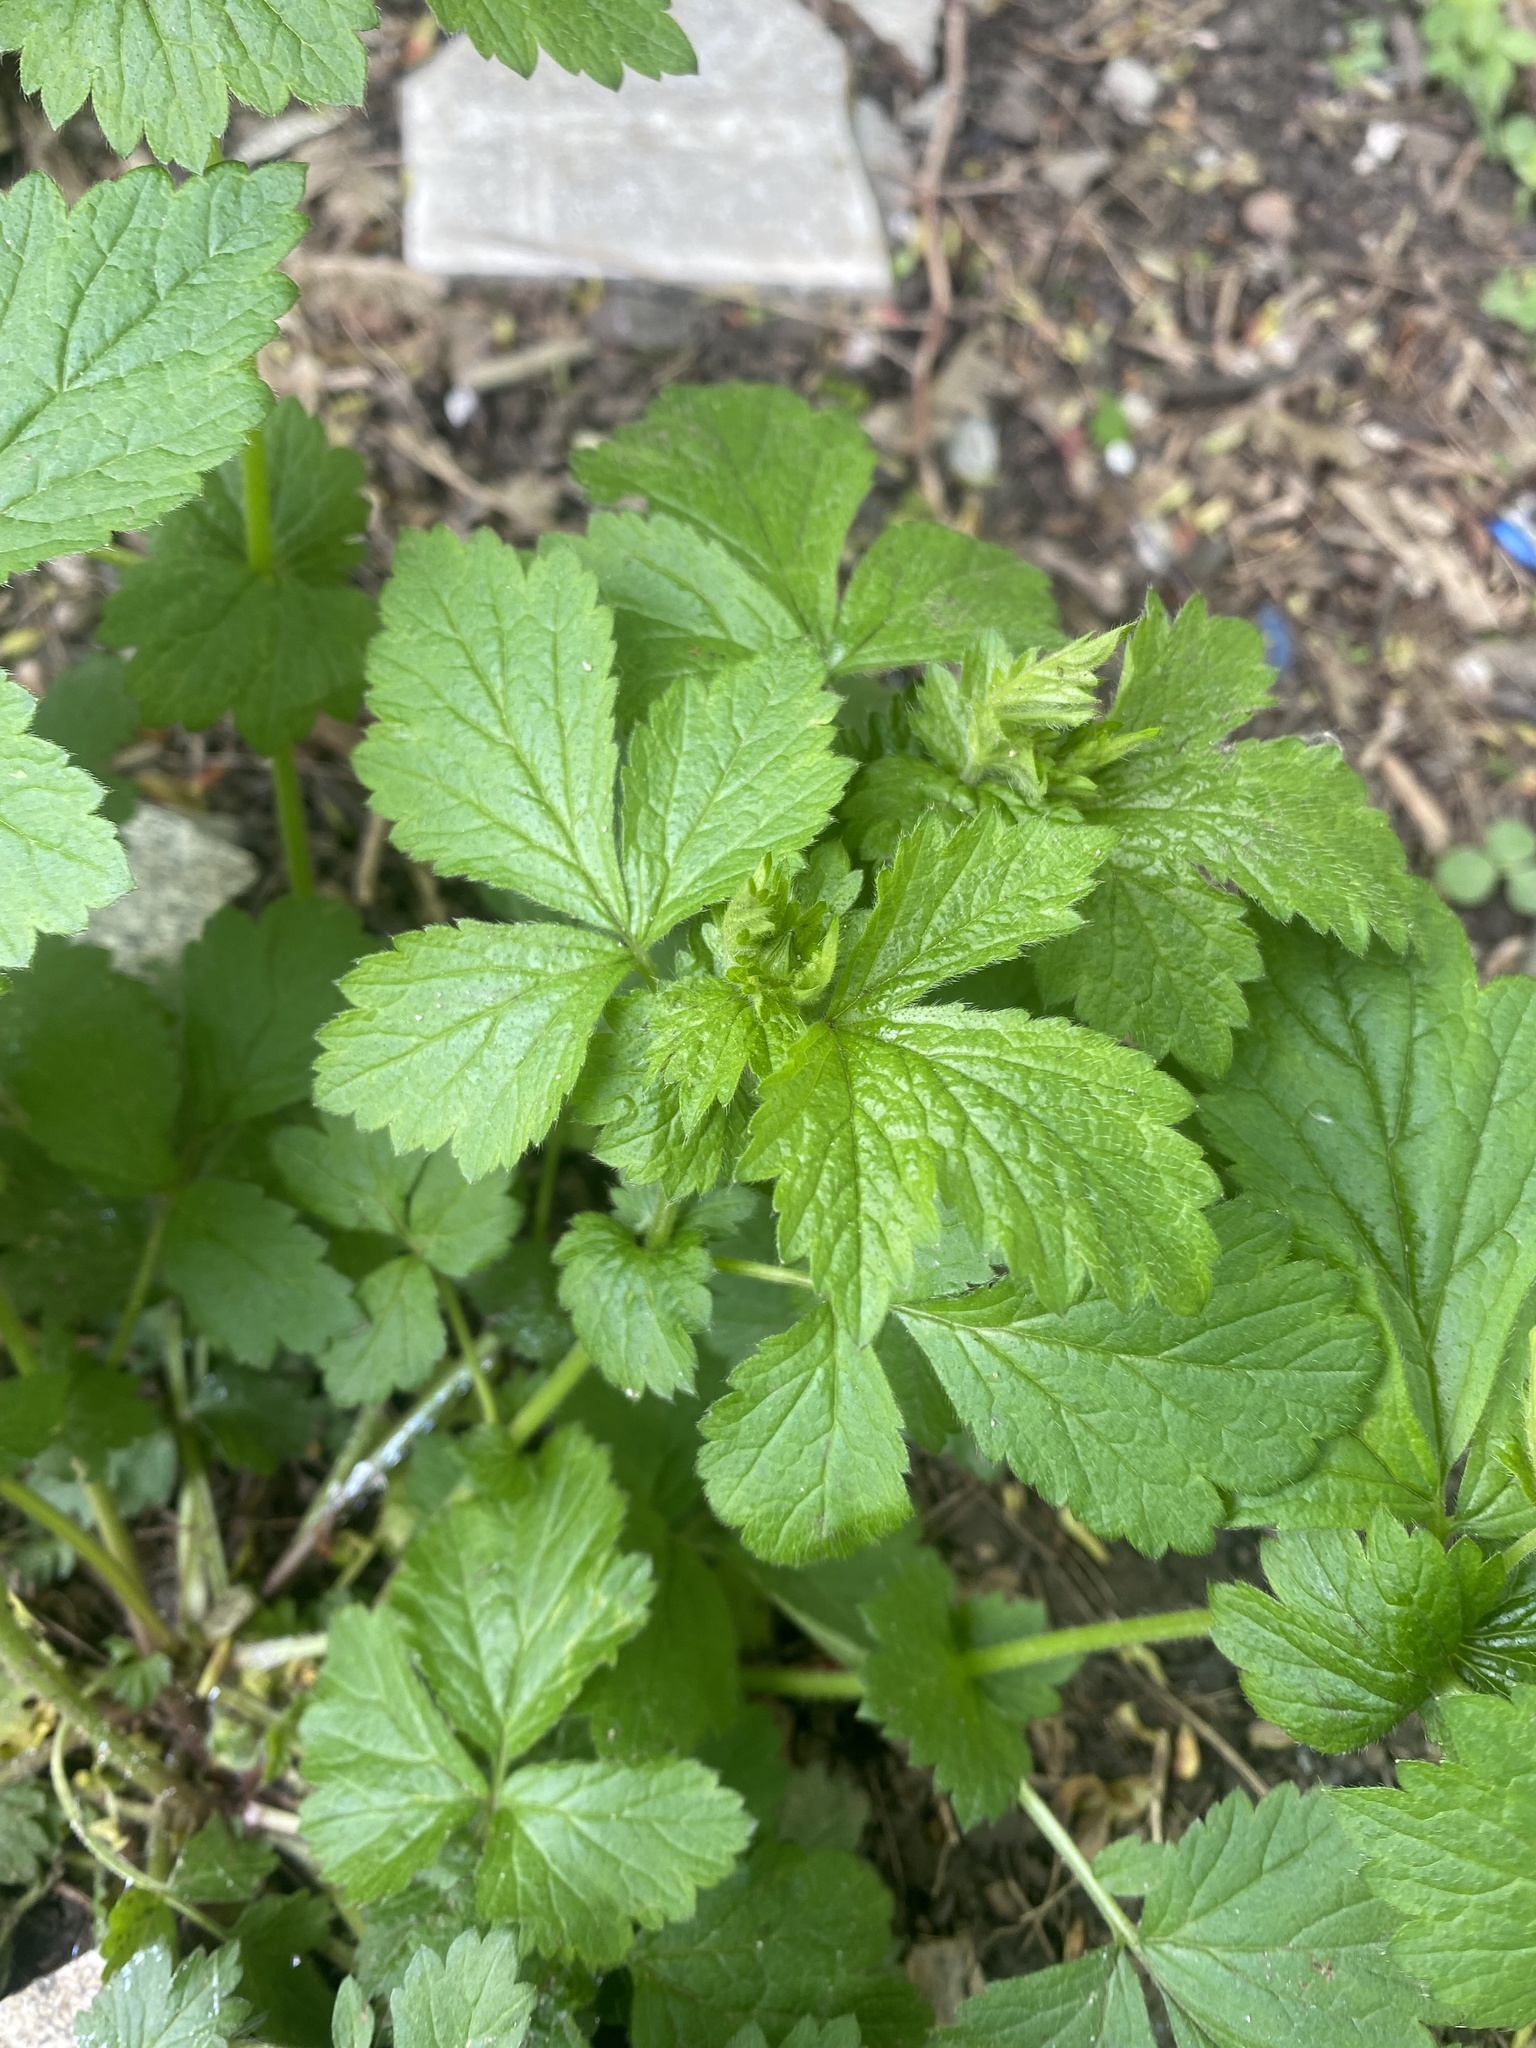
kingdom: Plantae
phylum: Tracheophyta
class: Magnoliopsida
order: Rosales
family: Rosaceae
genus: Geum
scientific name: Geum urbanum
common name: Wood avens
